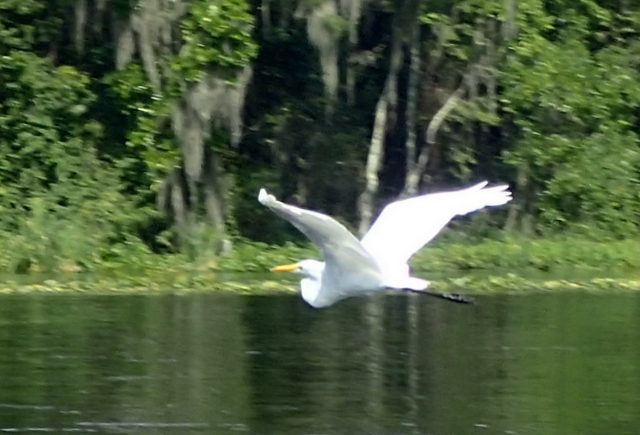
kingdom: Animalia
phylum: Chordata
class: Aves
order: Pelecaniformes
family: Ardeidae
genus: Ardea
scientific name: Ardea alba
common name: Great egret
